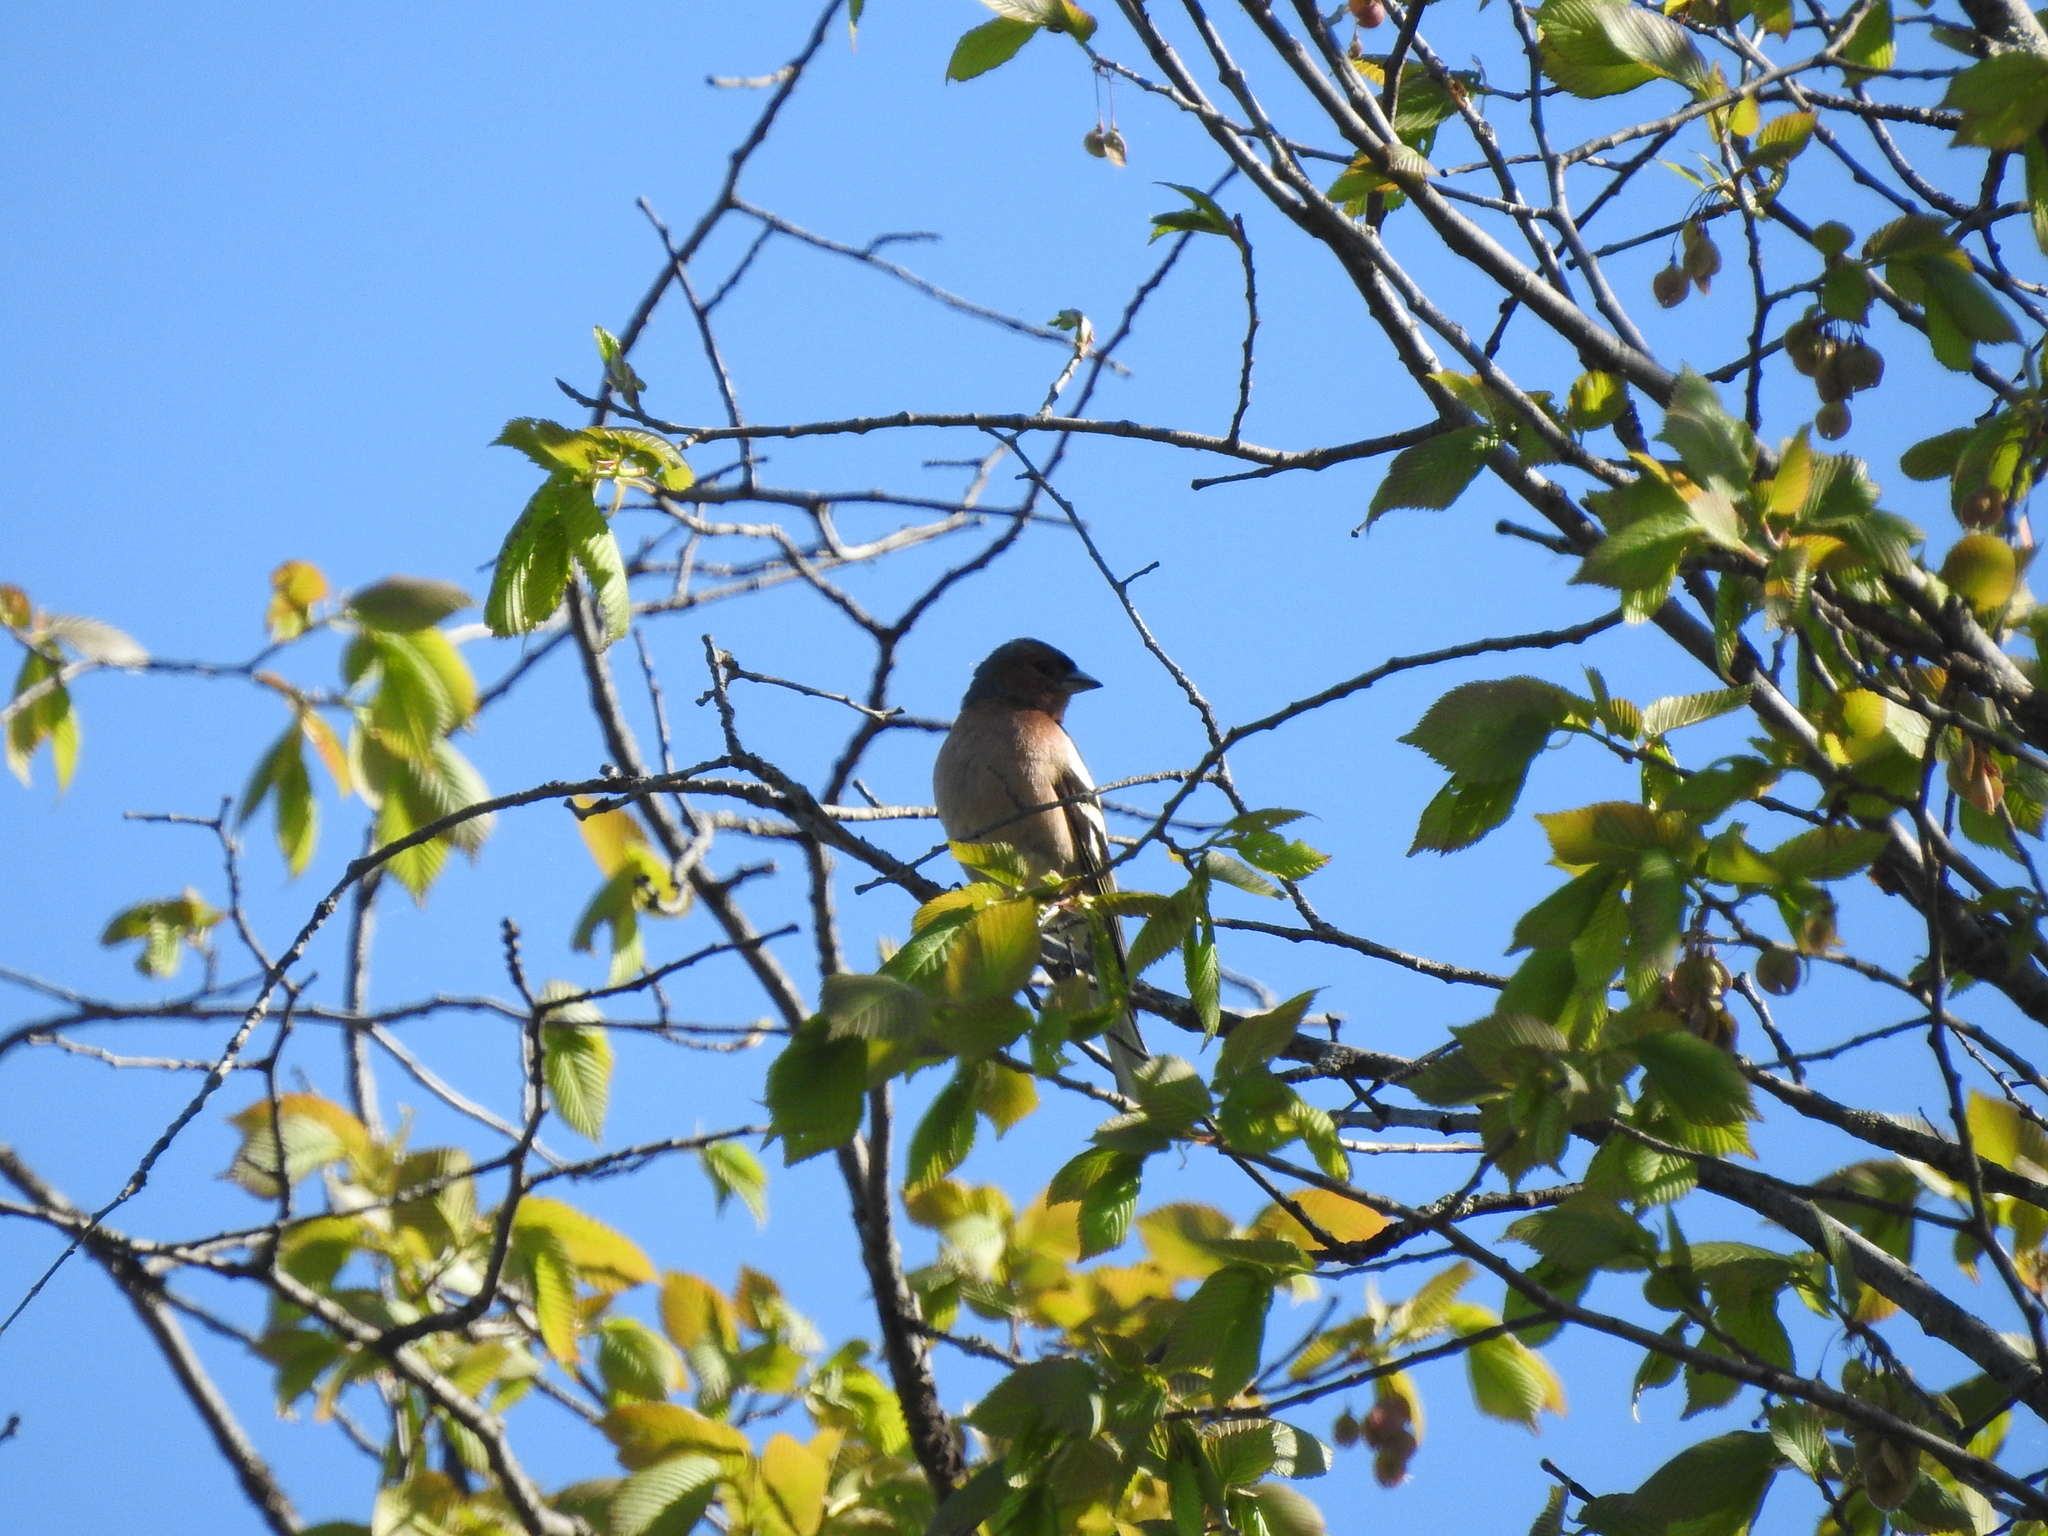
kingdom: Animalia
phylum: Chordata
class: Aves
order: Passeriformes
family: Fringillidae
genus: Fringilla
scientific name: Fringilla coelebs
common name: Common chaffinch
